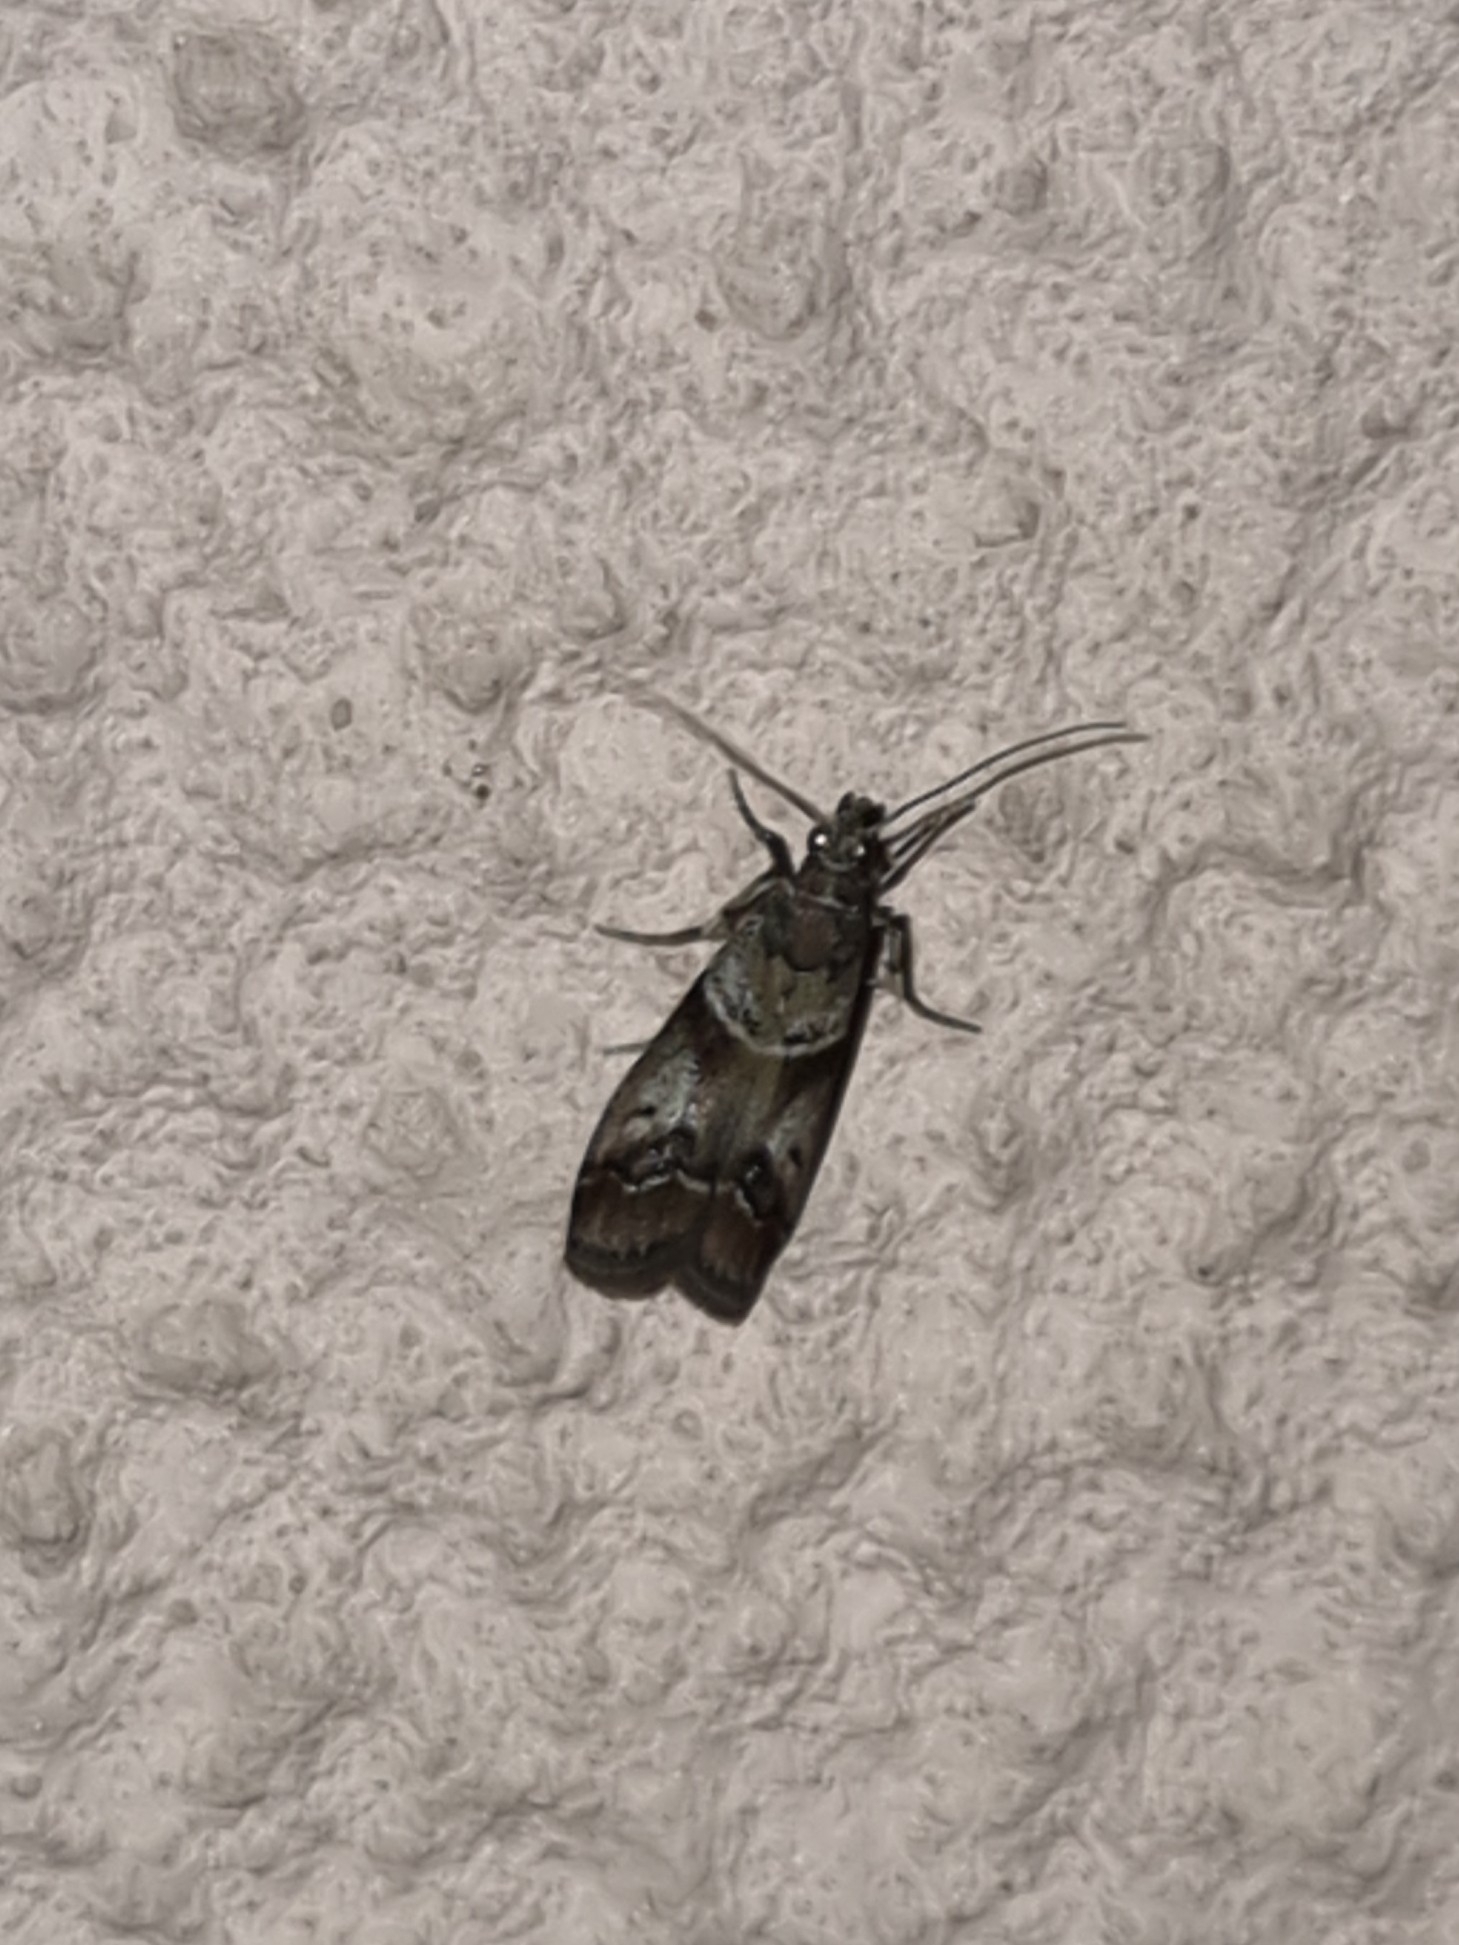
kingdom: Animalia
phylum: Arthropoda
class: Insecta
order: Lepidoptera
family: Pyralidae
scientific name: Pyralidae
